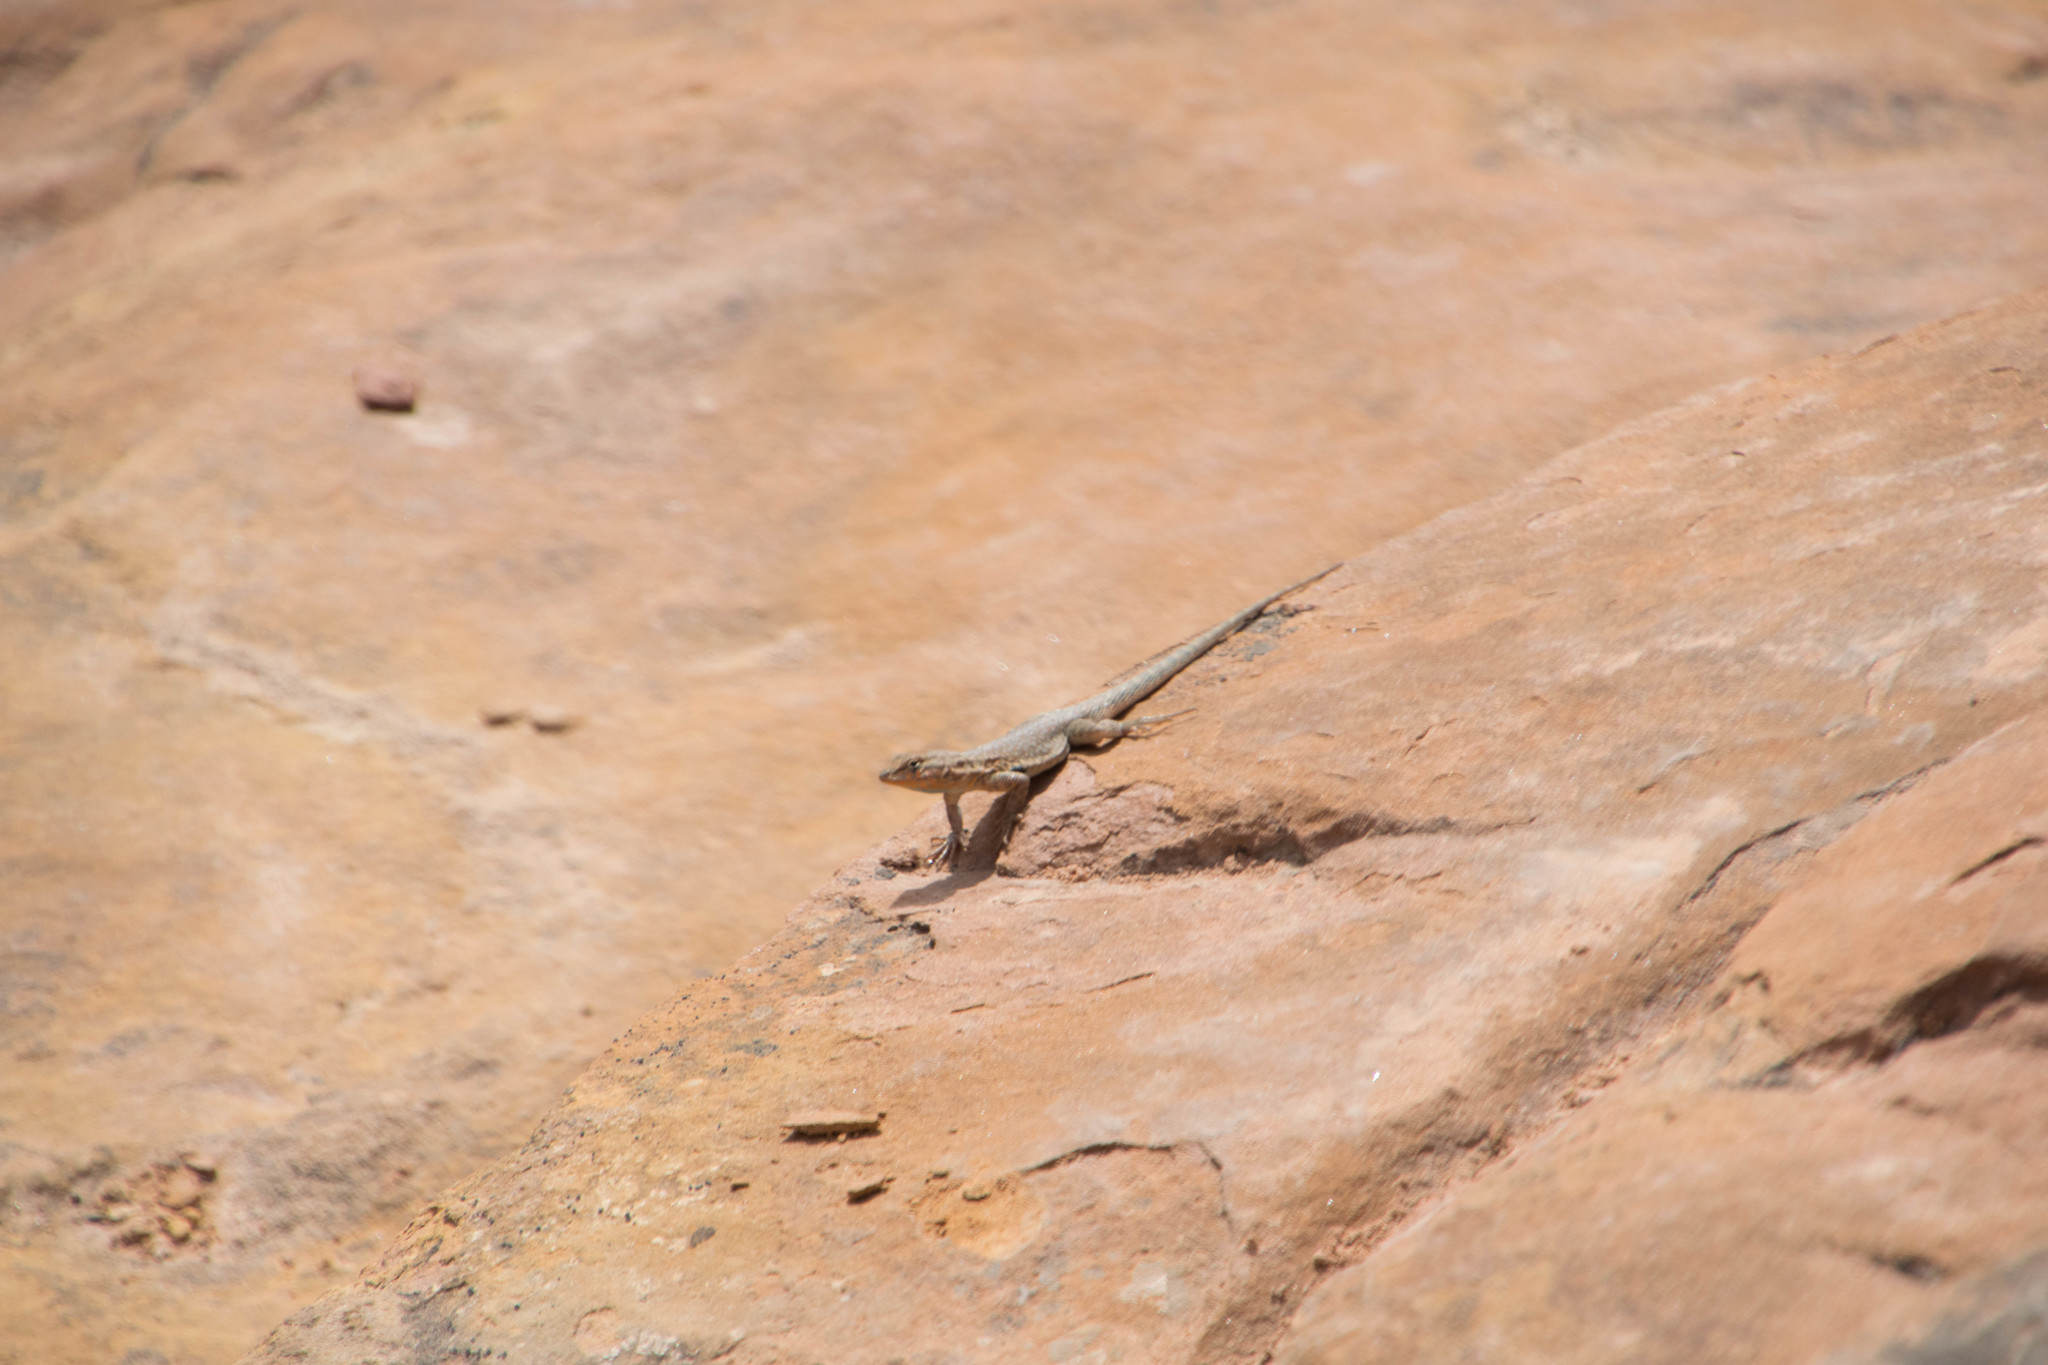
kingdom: Animalia
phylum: Chordata
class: Squamata
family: Phrynosomatidae
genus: Uta
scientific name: Uta stansburiana
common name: Side-blotched lizard
